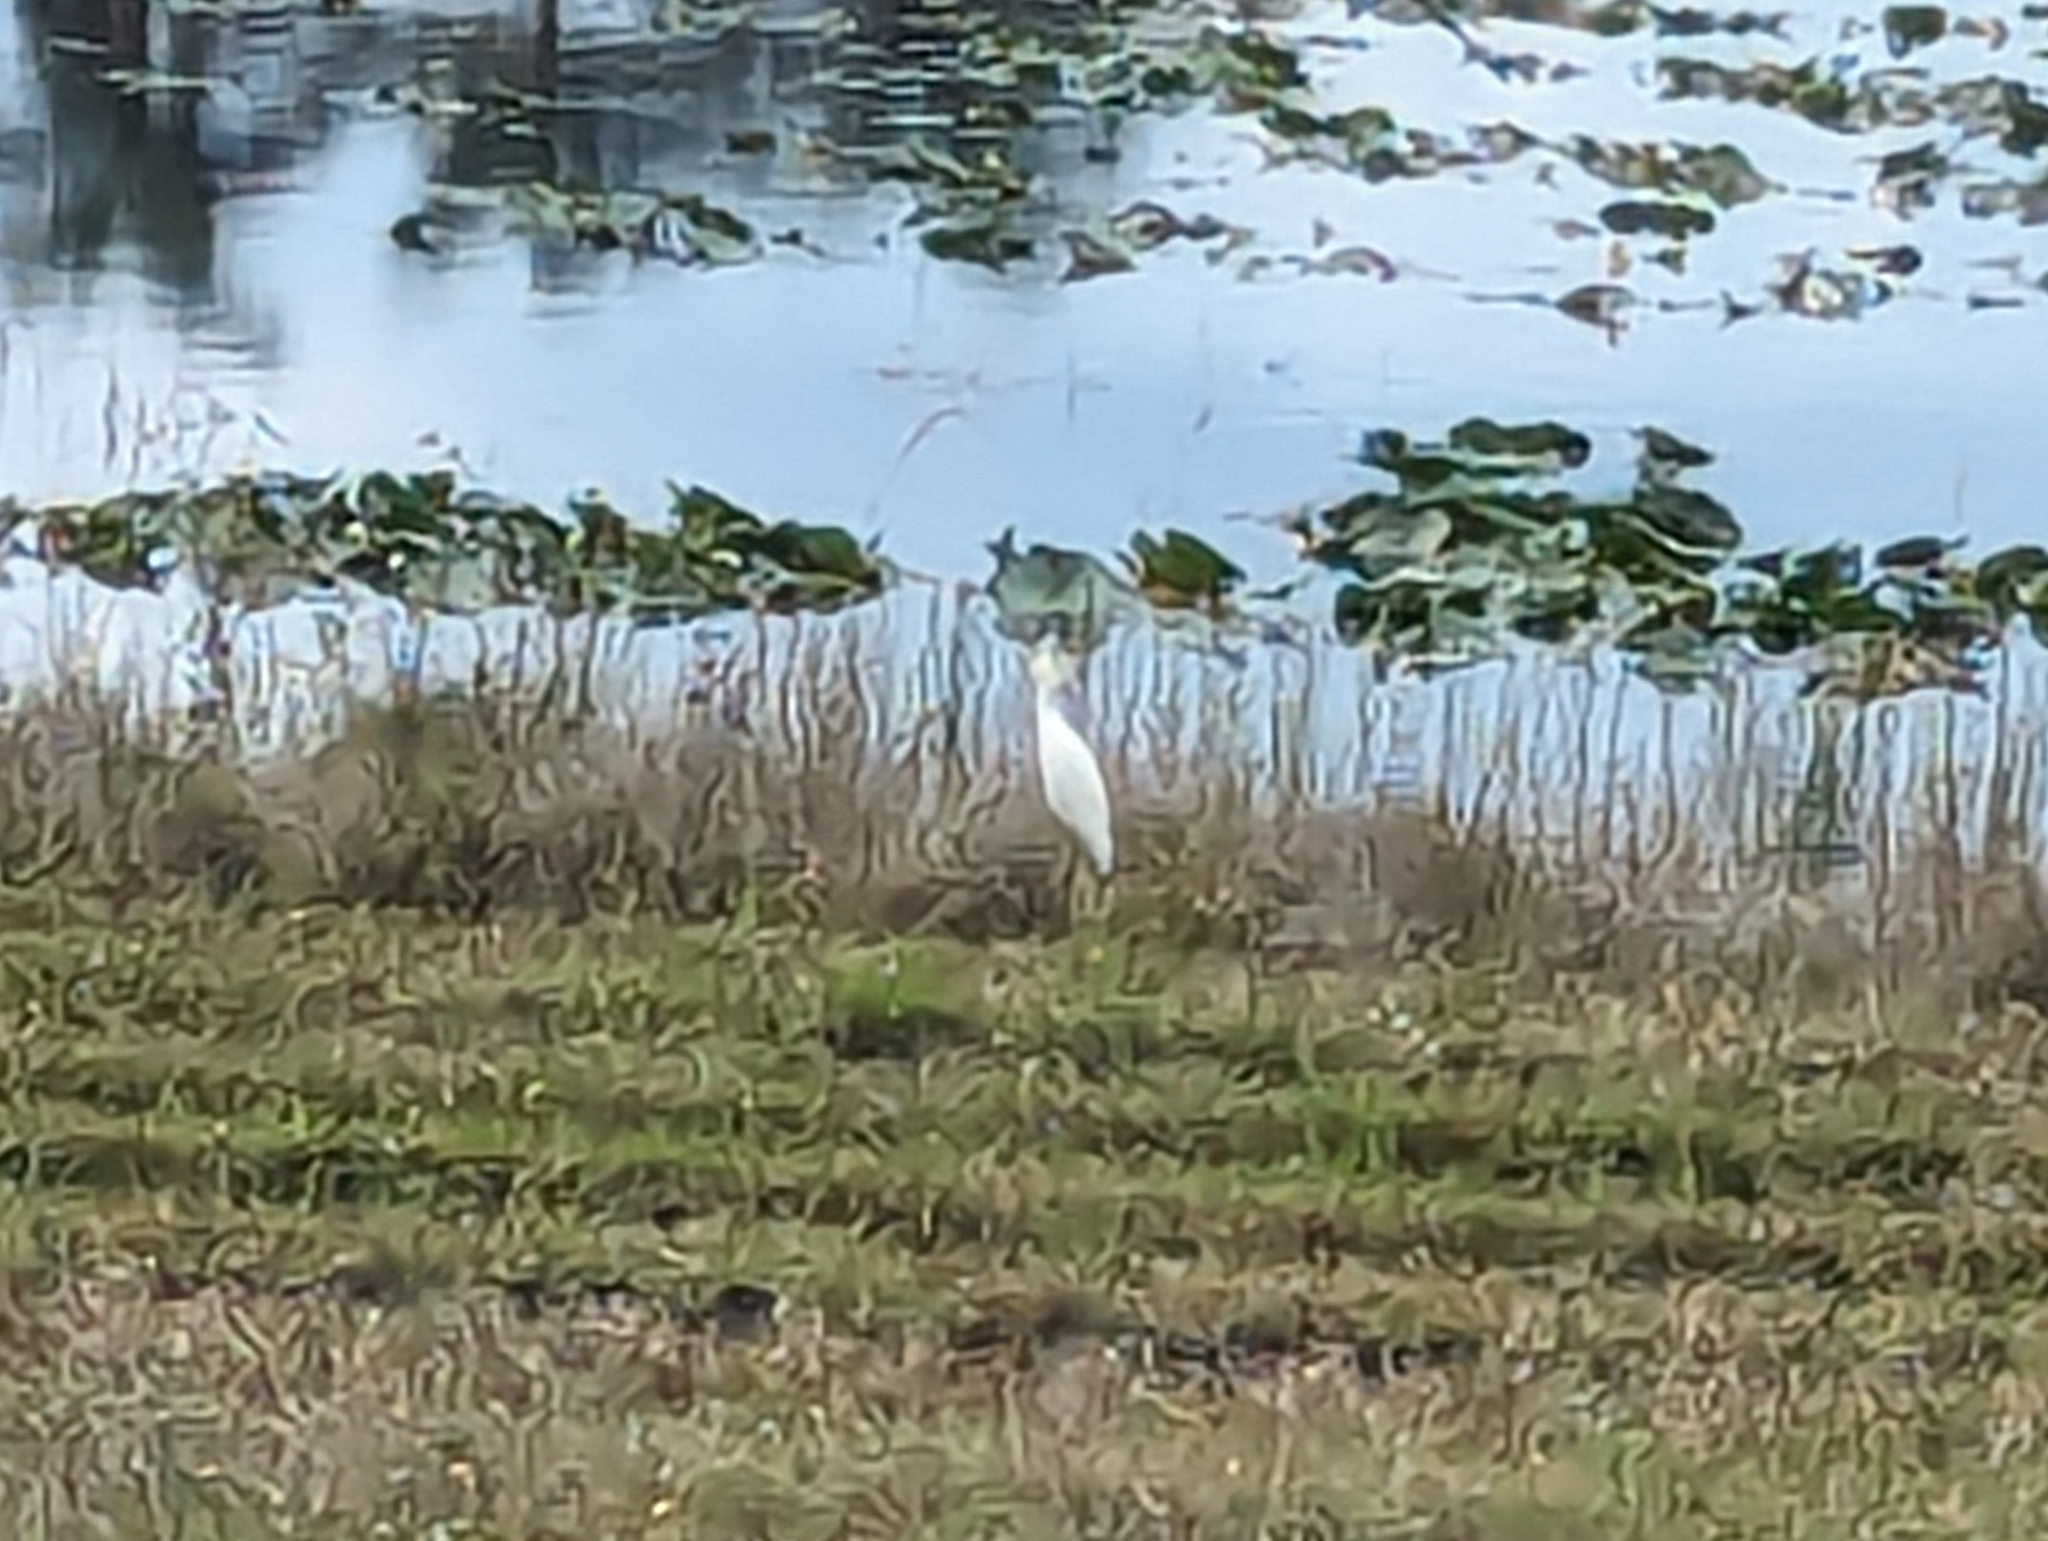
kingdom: Animalia
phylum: Chordata
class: Aves
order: Pelecaniformes
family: Ardeidae
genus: Bubulcus
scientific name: Bubulcus ibis
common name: Cattle egret
